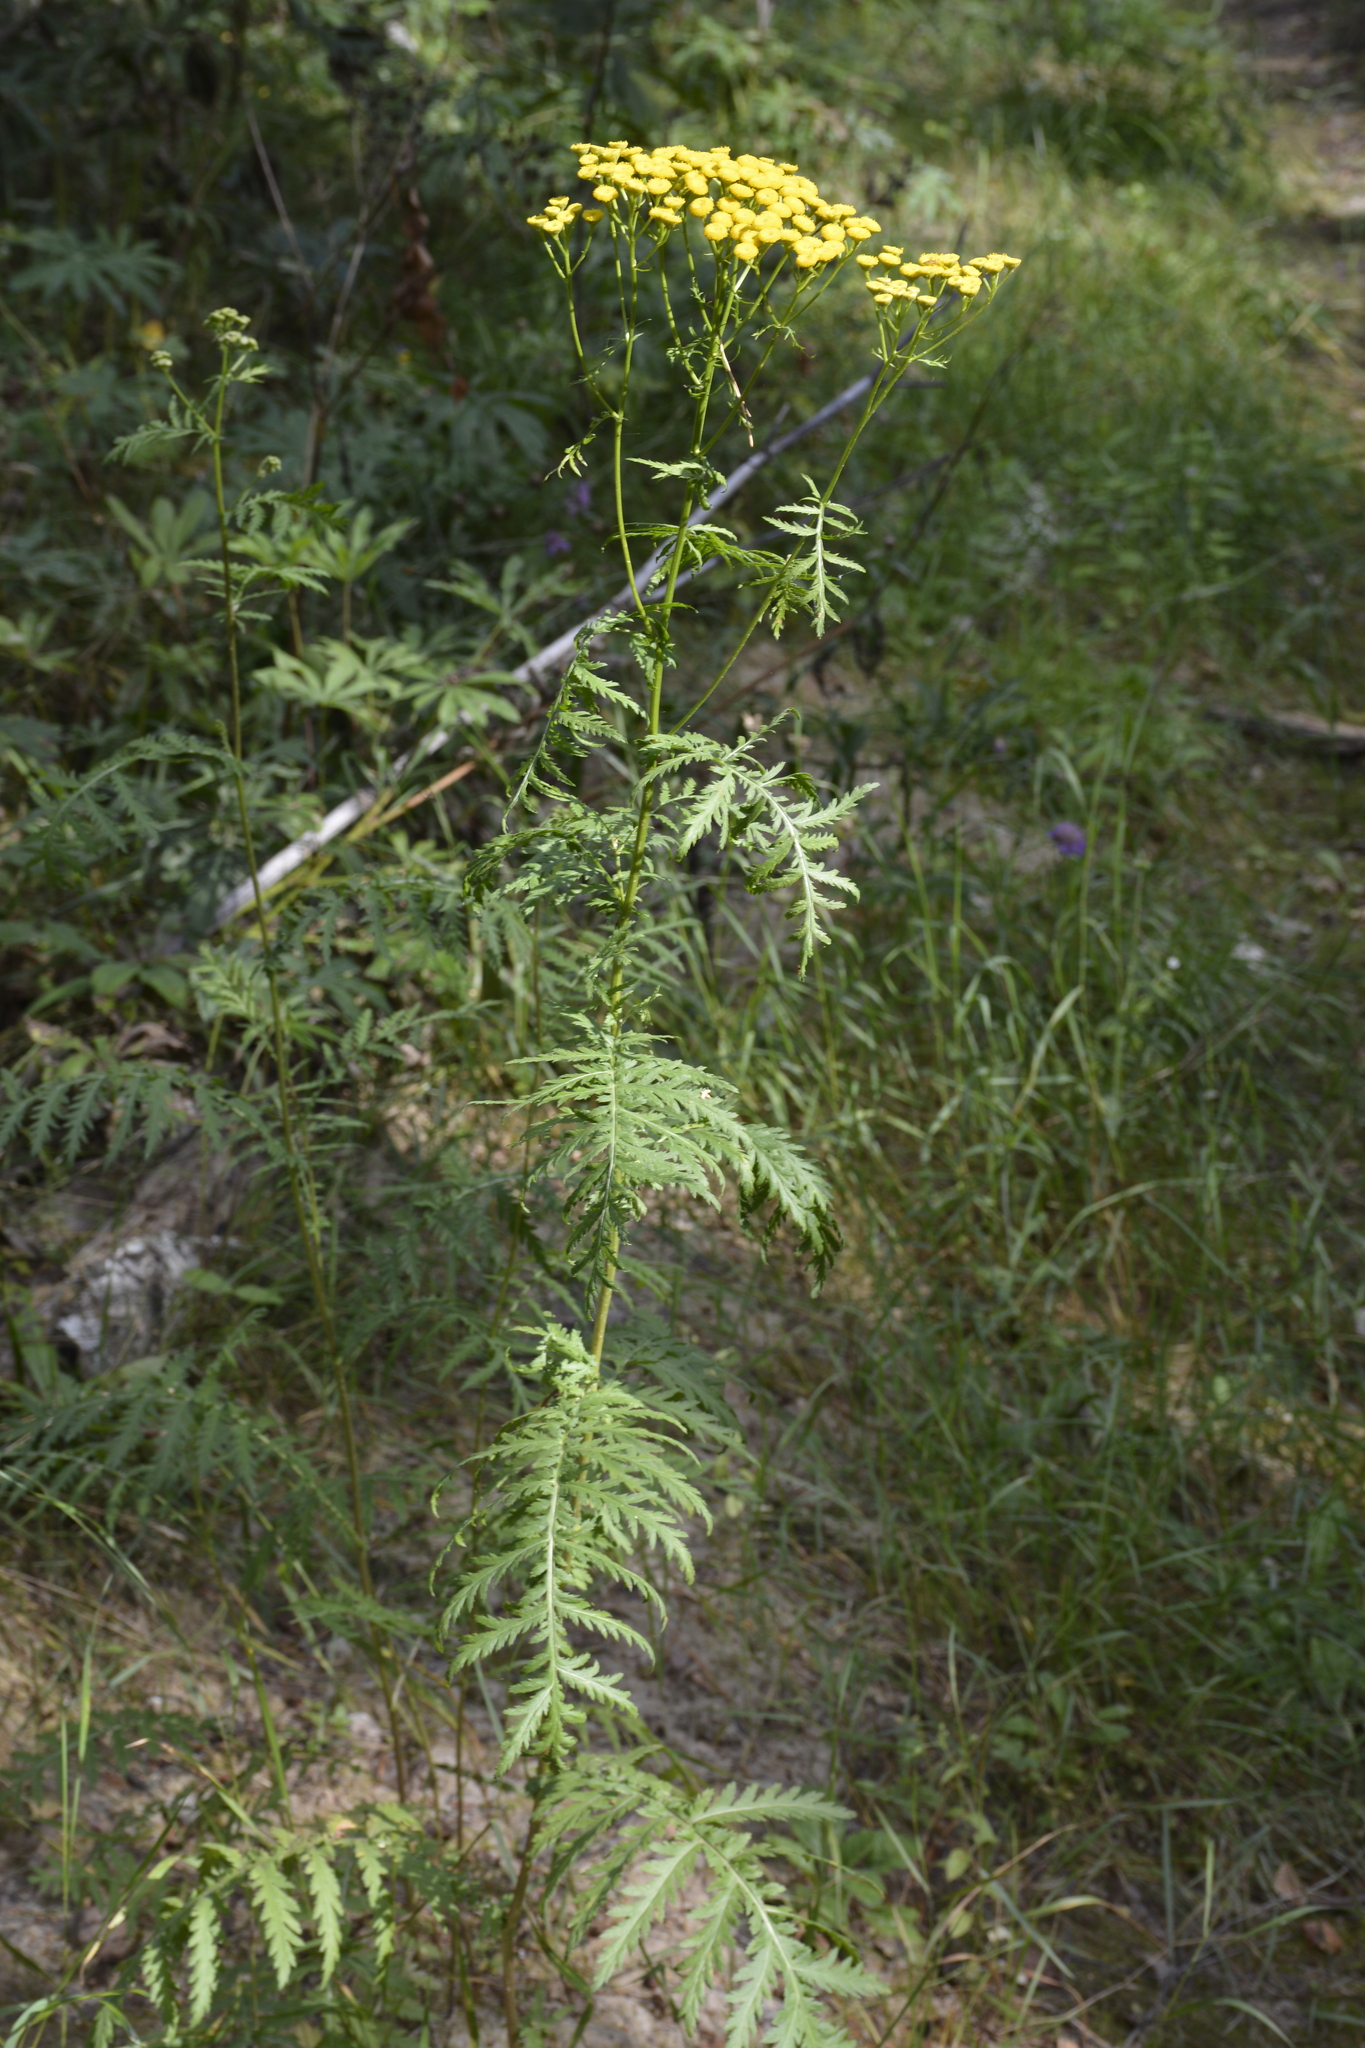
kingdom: Plantae
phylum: Tracheophyta
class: Magnoliopsida
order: Asterales
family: Asteraceae
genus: Tanacetum
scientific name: Tanacetum vulgare
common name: Common tansy
